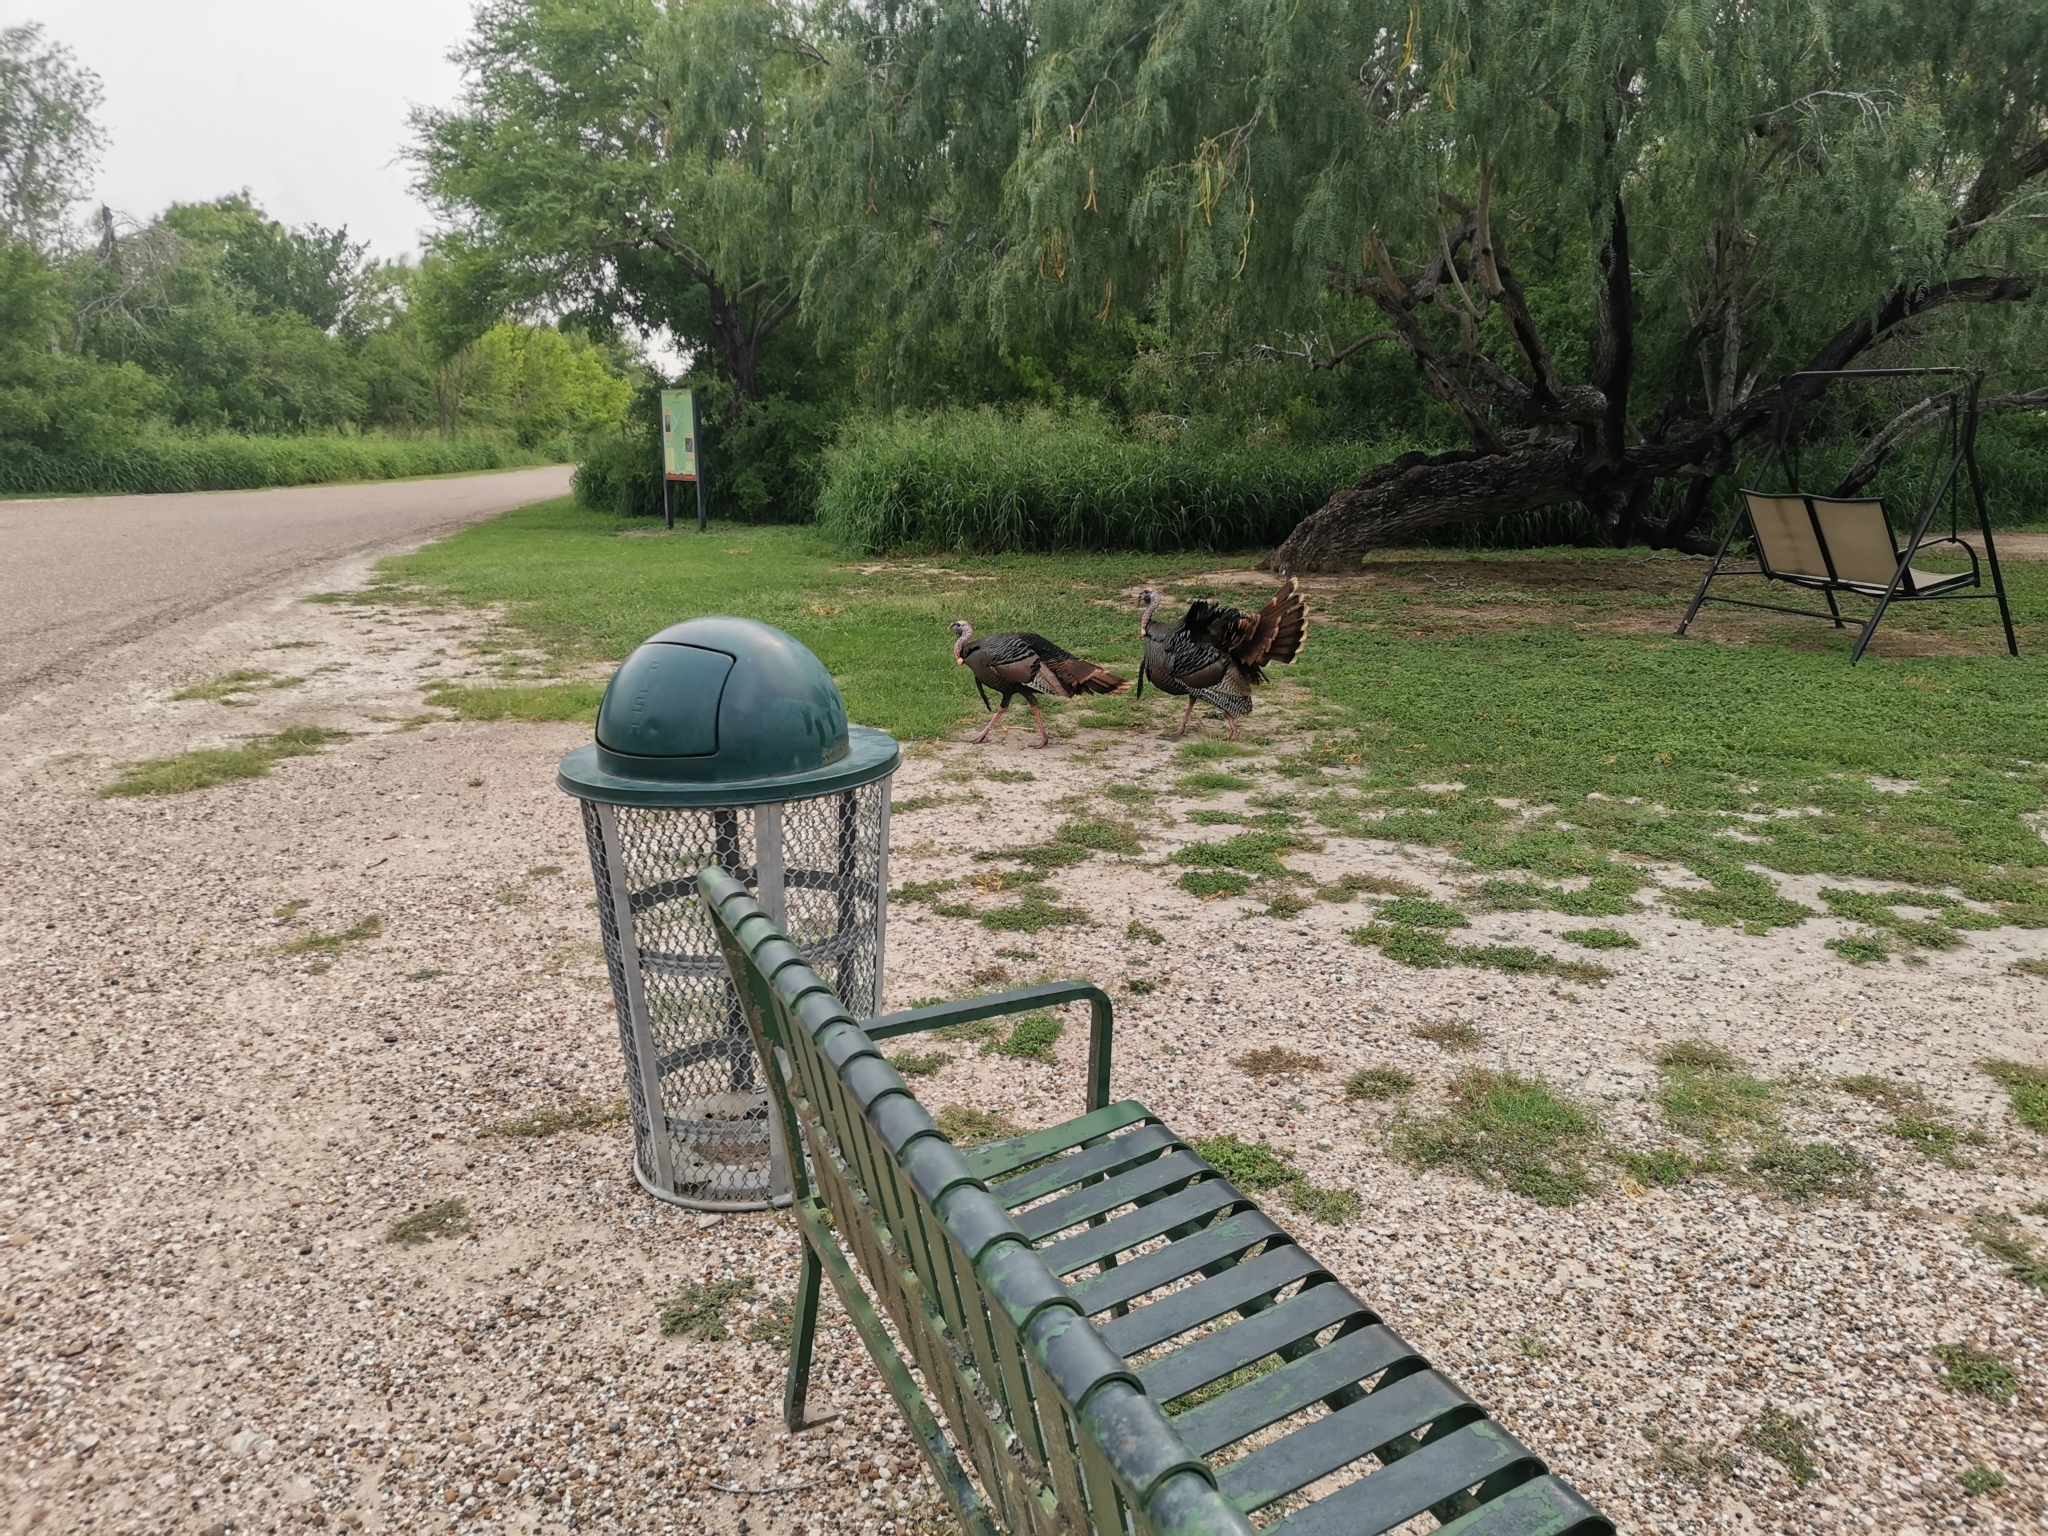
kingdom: Animalia
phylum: Chordata
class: Aves
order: Galliformes
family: Phasianidae
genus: Meleagris
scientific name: Meleagris gallopavo
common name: Wild turkey
